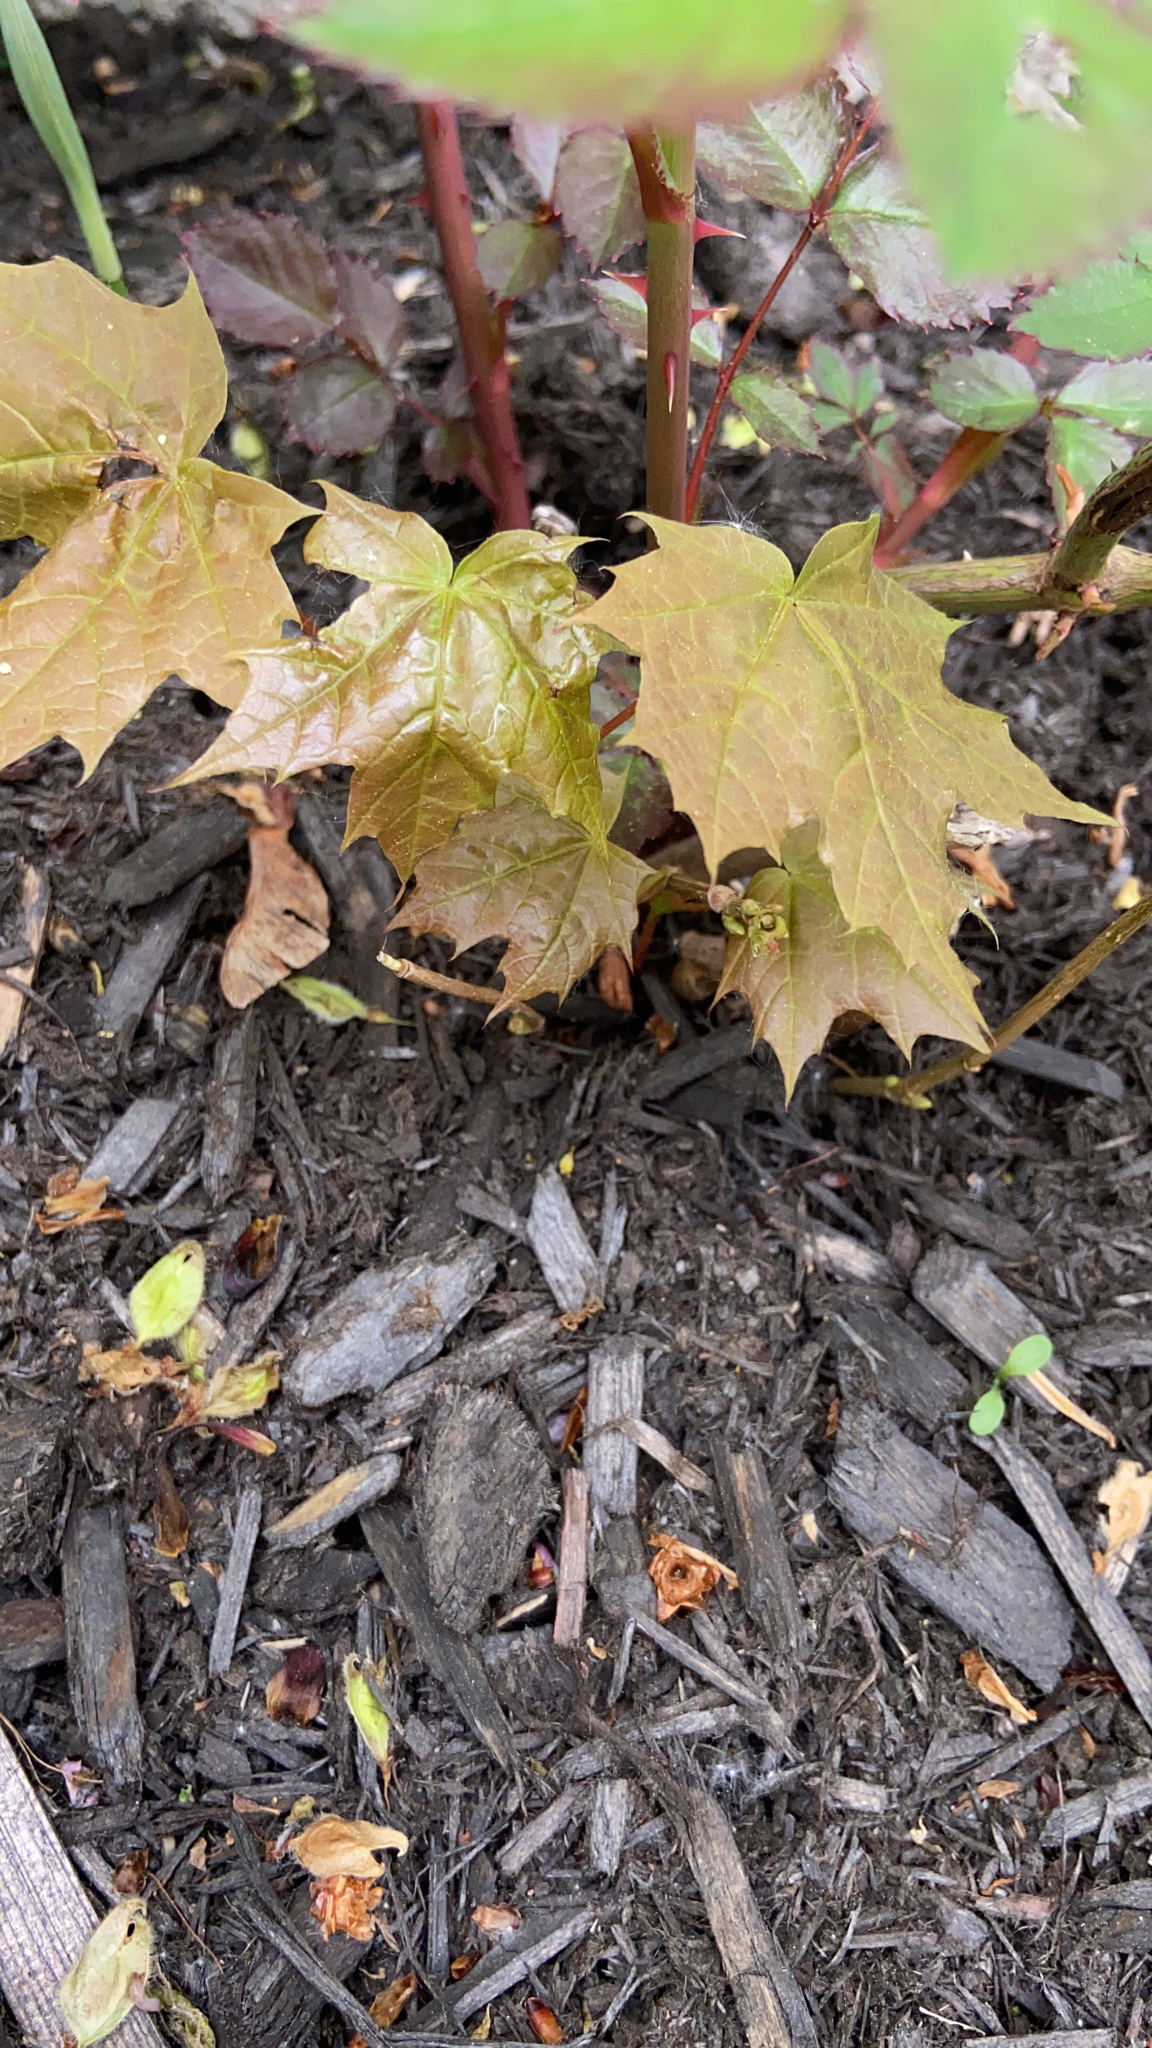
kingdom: Plantae
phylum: Tracheophyta
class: Magnoliopsida
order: Sapindales
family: Sapindaceae
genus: Acer
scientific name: Acer platanoides
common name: Norway maple
